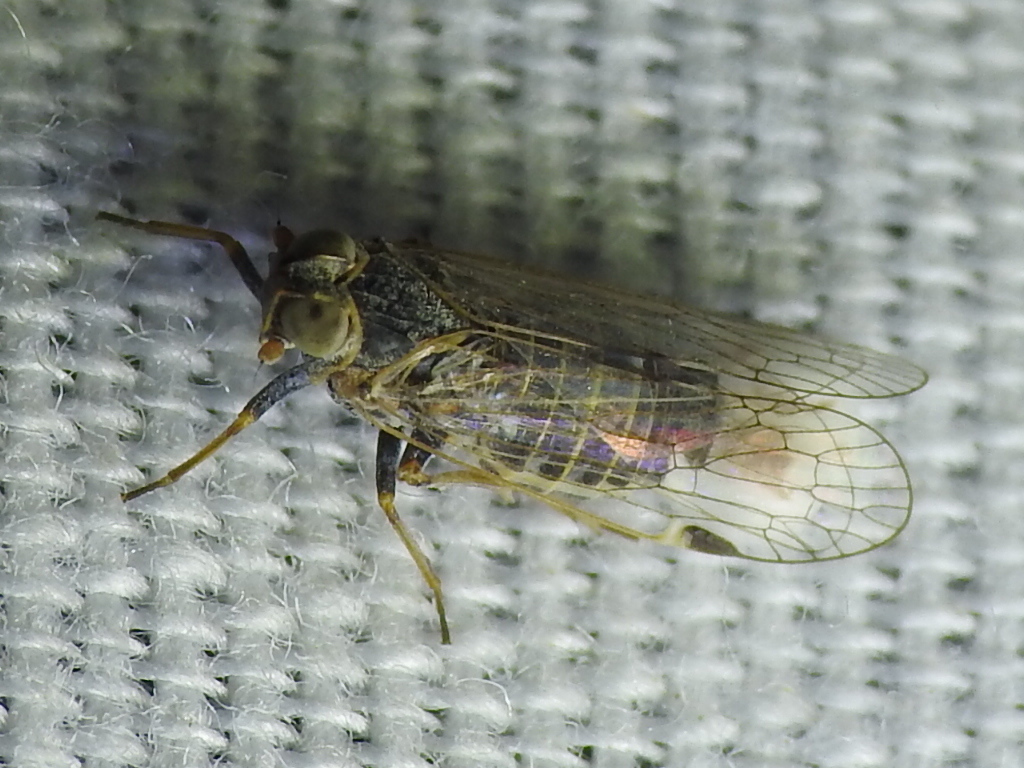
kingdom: Animalia
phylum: Arthropoda
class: Insecta
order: Hemiptera
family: Cixiidae
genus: Melanoliarus
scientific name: Melanoliarus acicus
